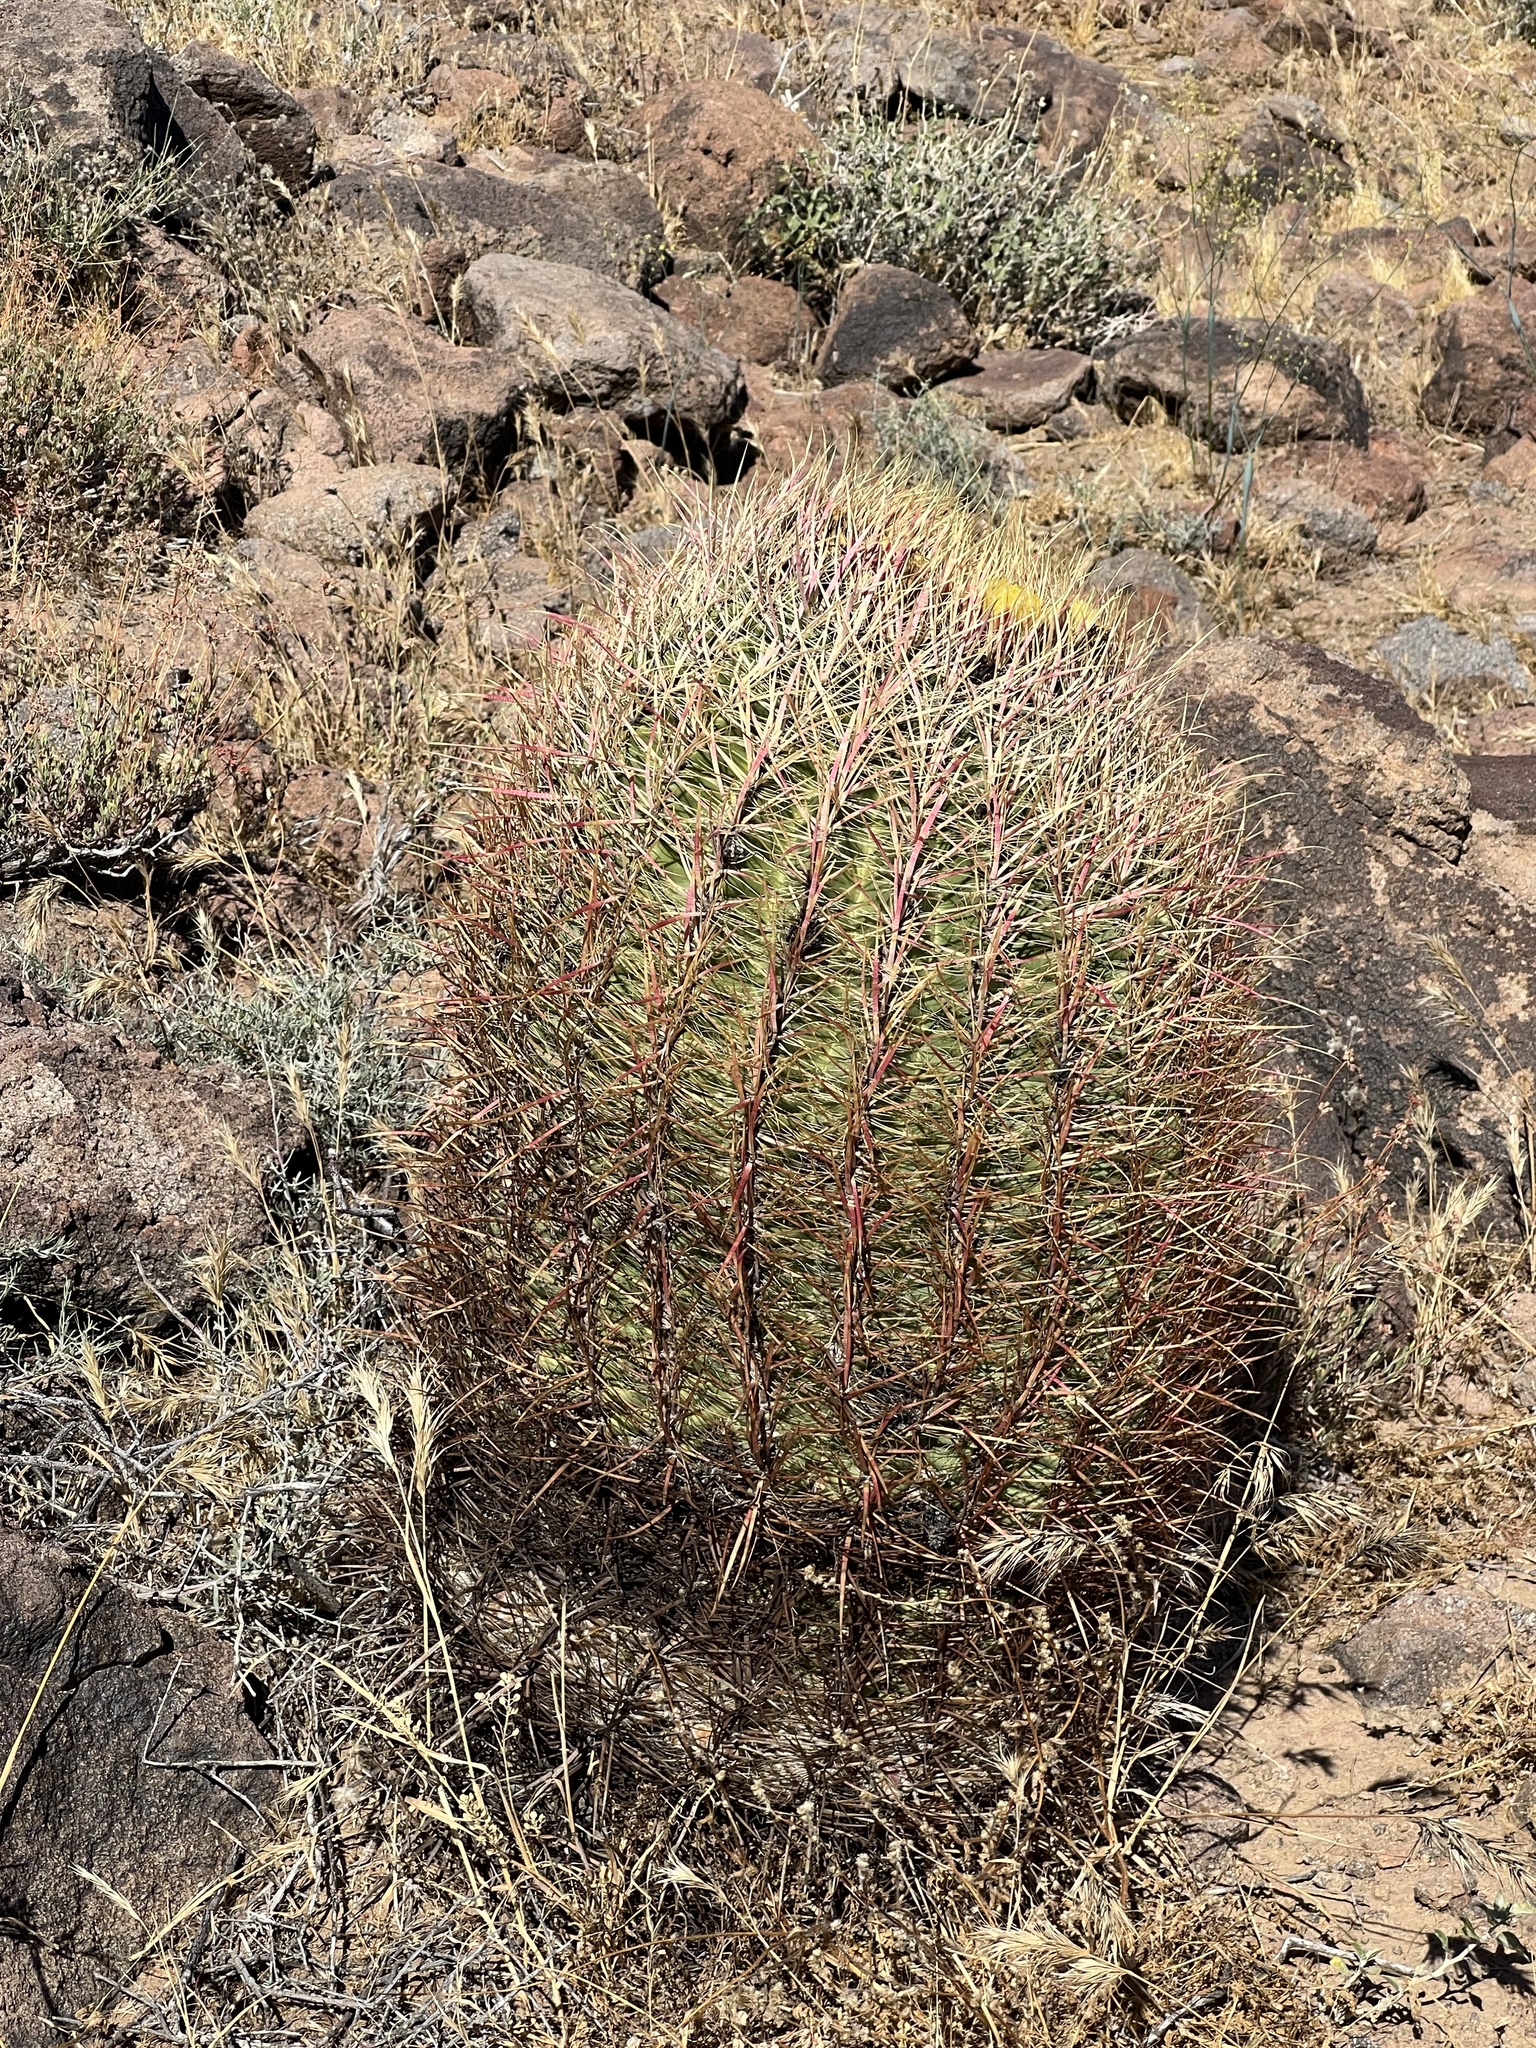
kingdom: Plantae
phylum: Tracheophyta
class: Magnoliopsida
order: Caryophyllales
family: Cactaceae
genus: Ferocactus
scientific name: Ferocactus cylindraceus
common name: California barrel cactus
